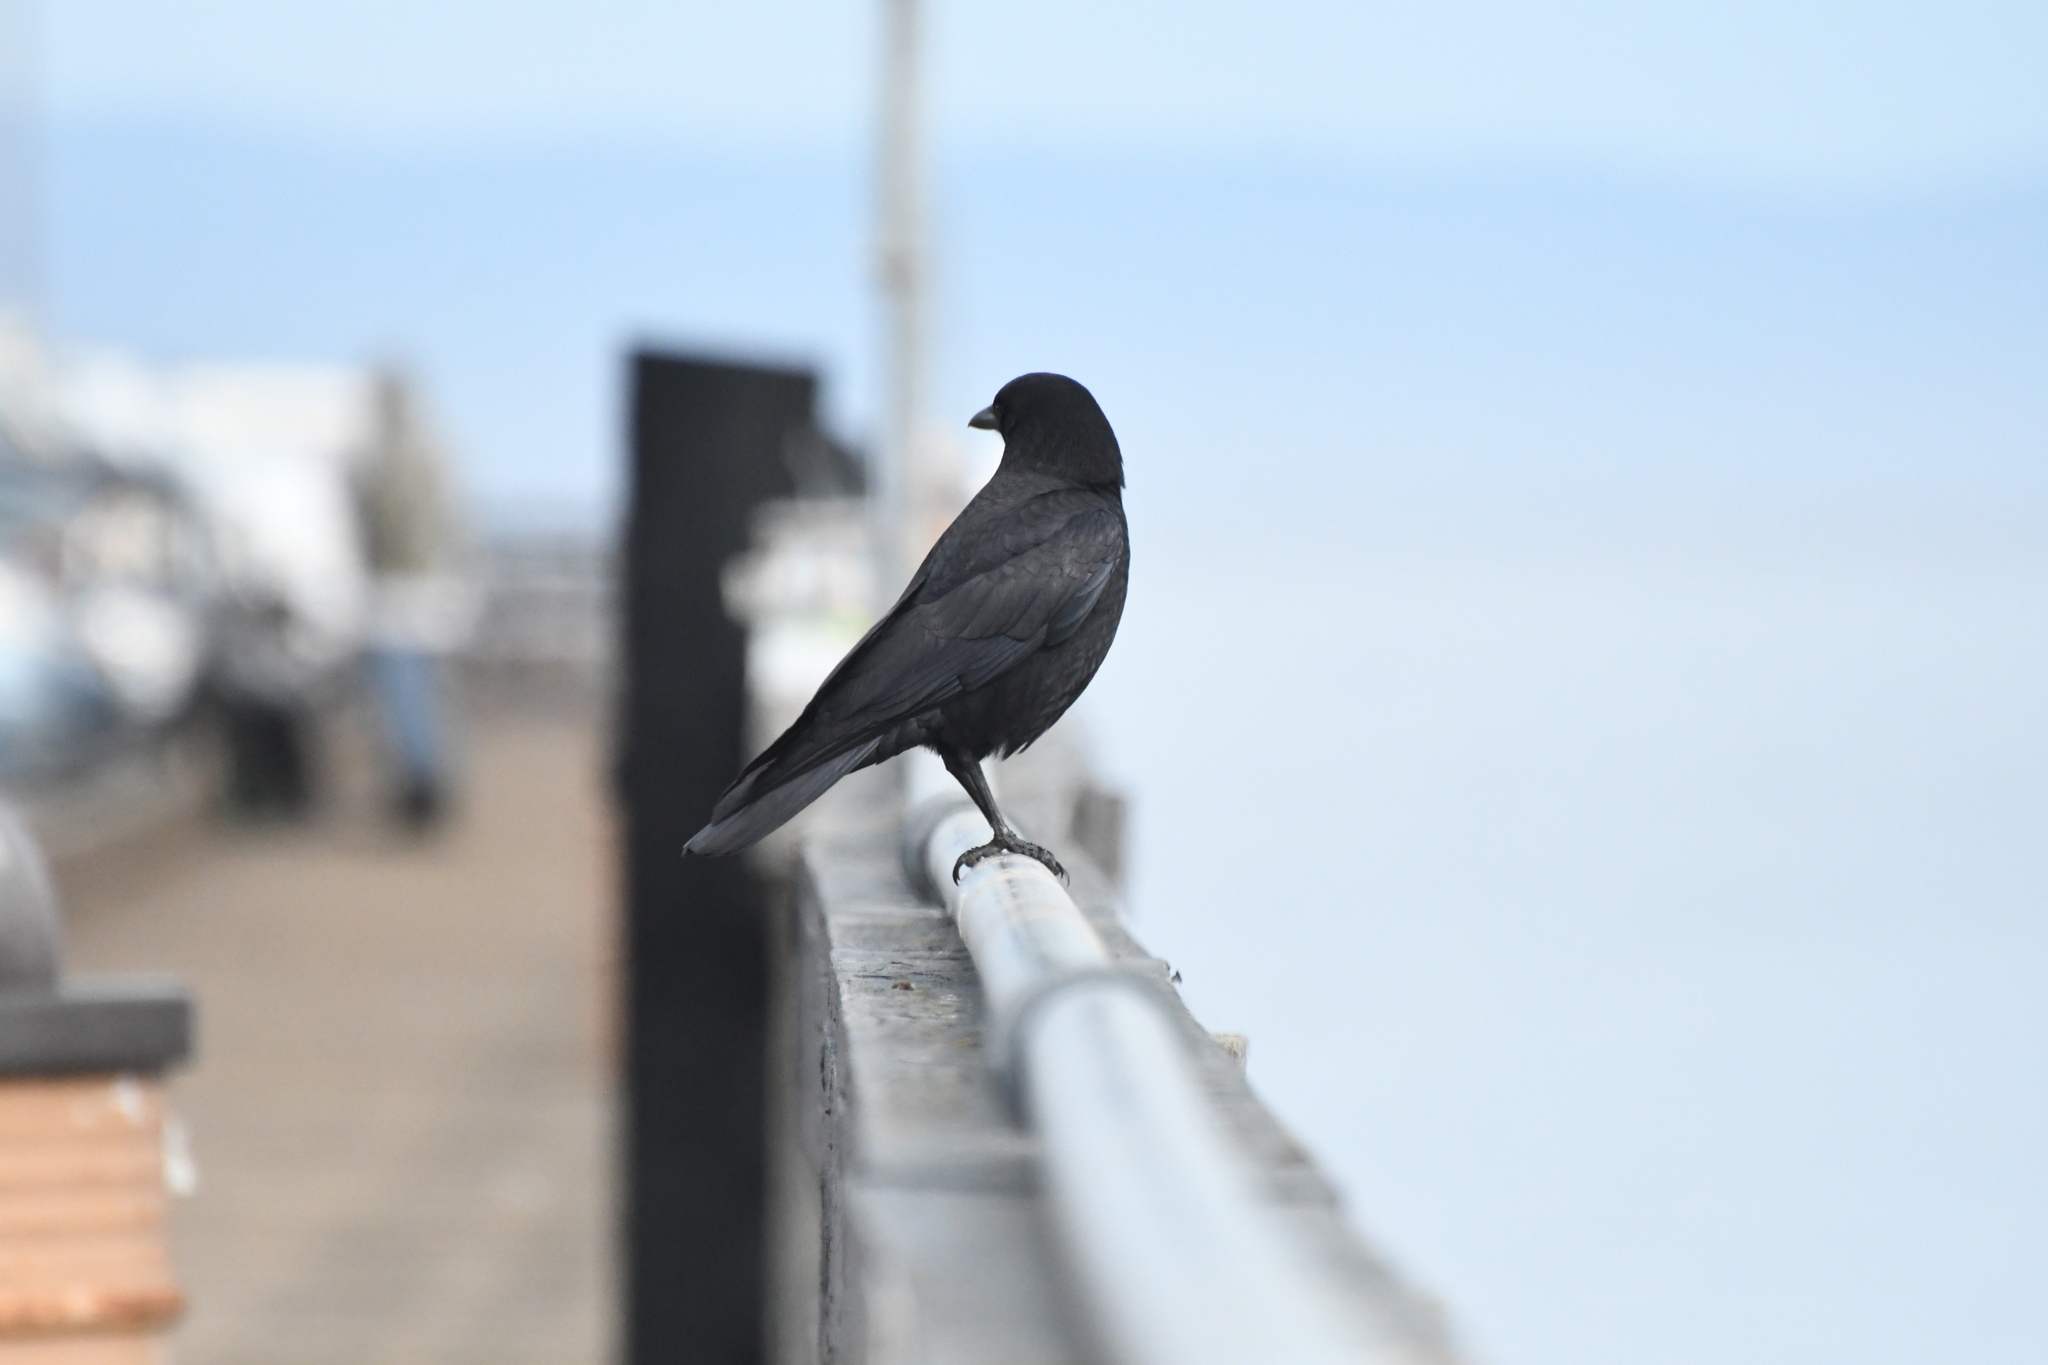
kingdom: Animalia
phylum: Chordata
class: Aves
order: Passeriformes
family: Corvidae
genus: Corvus
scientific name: Corvus brachyrhynchos
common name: American crow
